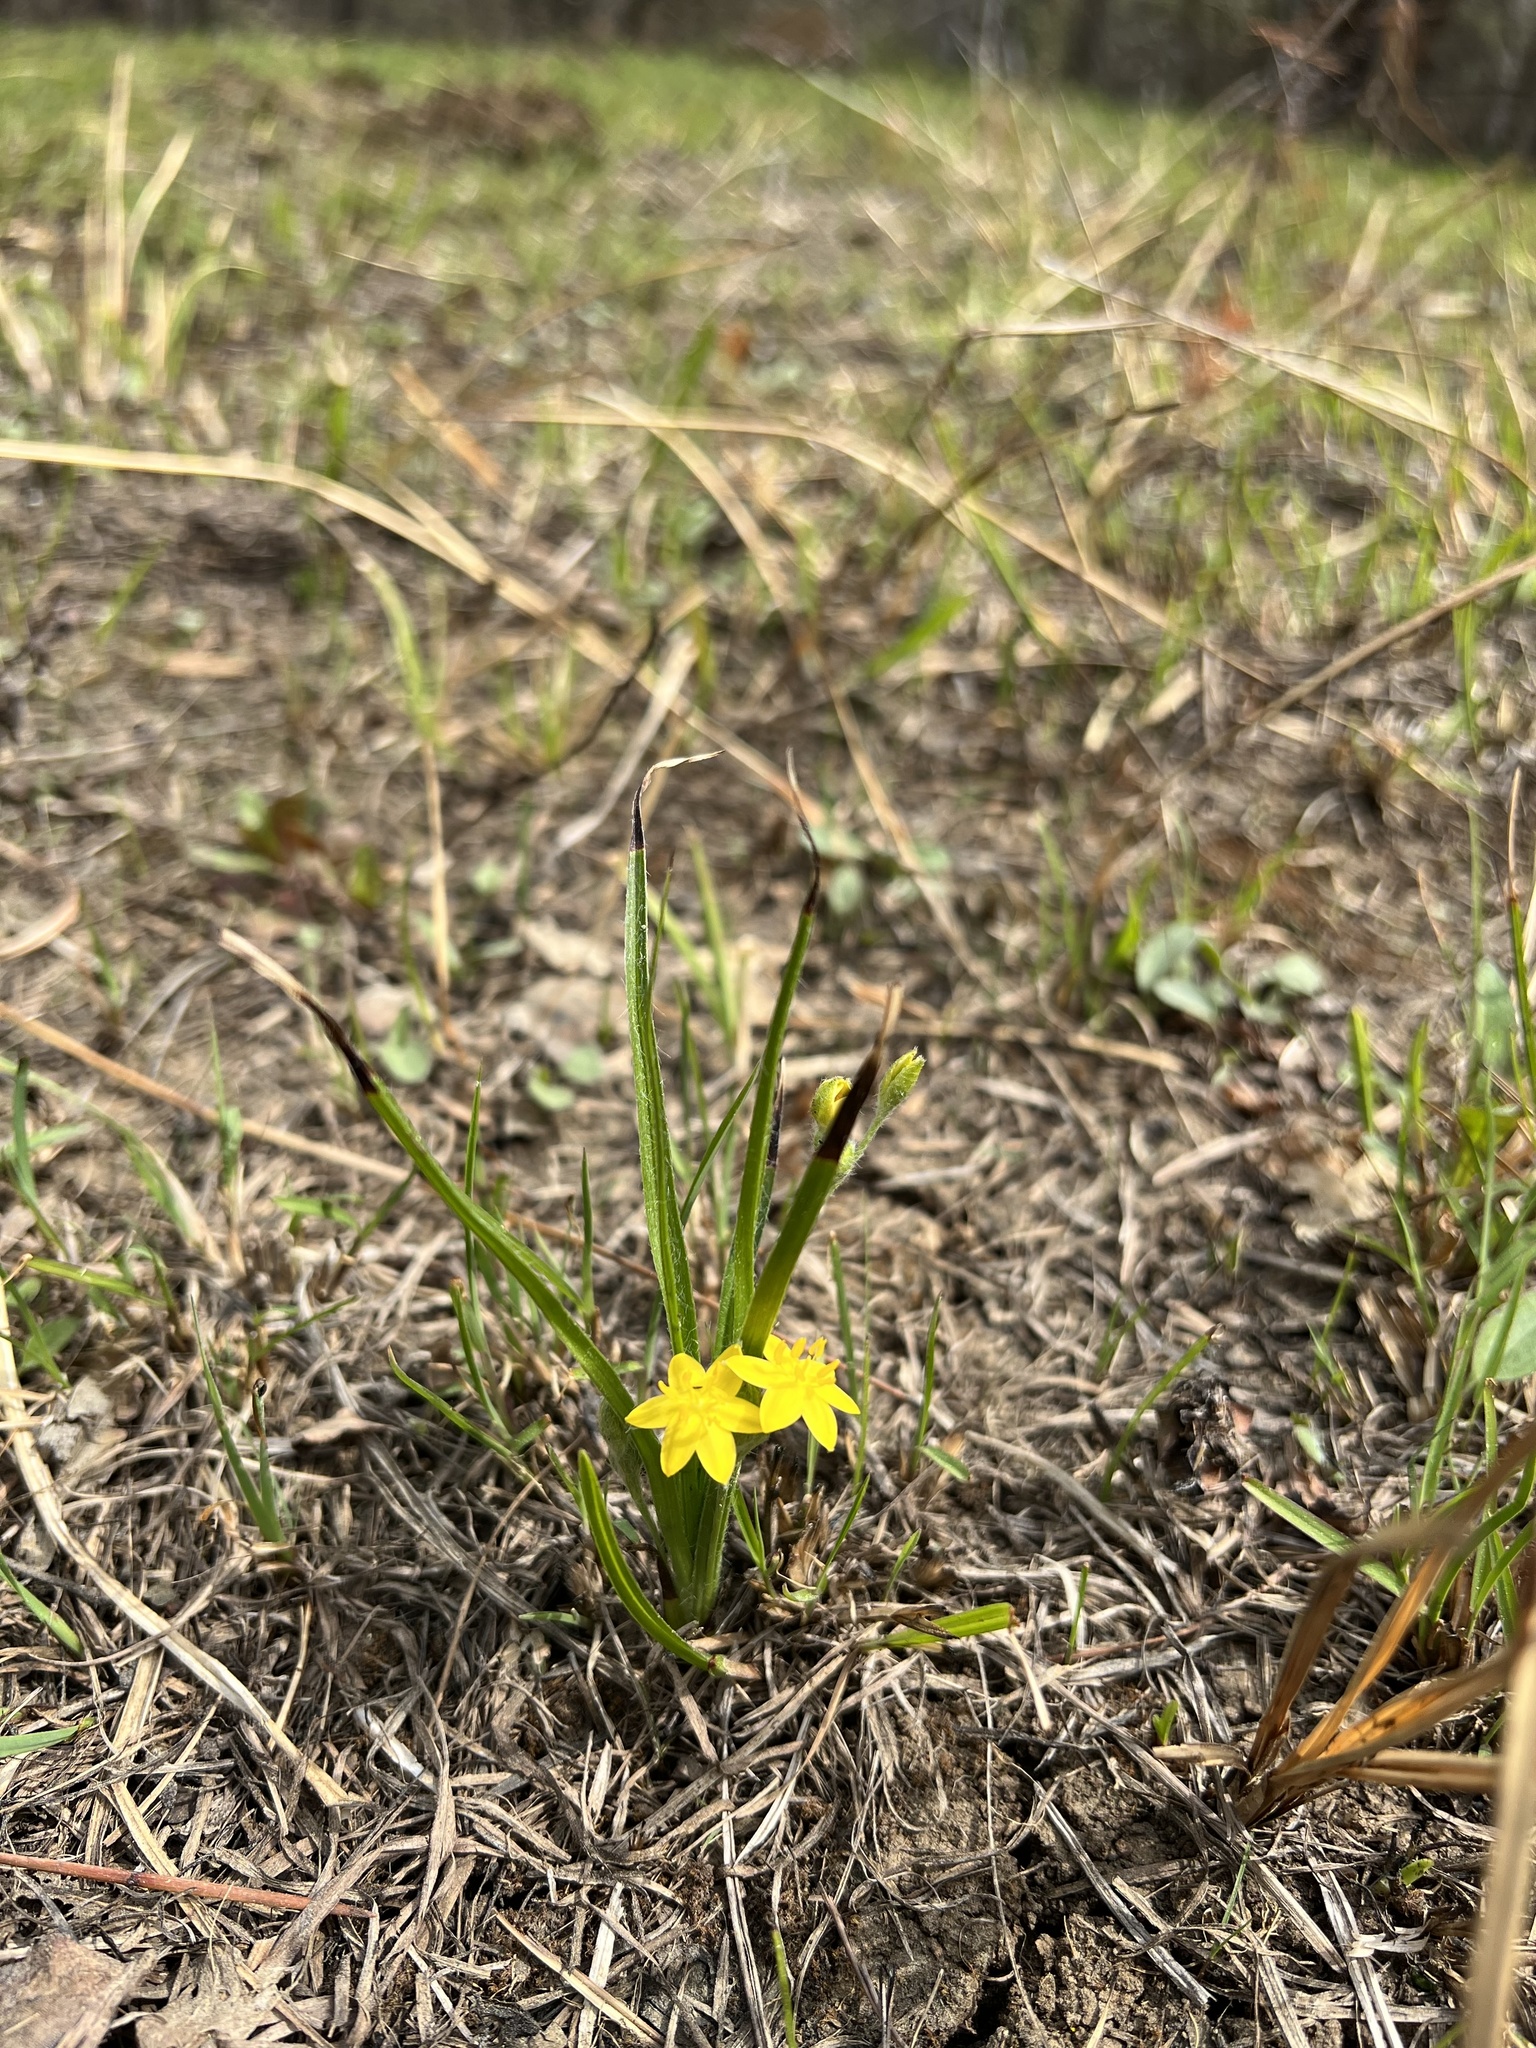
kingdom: Plantae
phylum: Tracheophyta
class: Liliopsida
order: Asparagales
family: Hypoxidaceae
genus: Hypoxis
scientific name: Hypoxis hirsuta
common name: Common goldstar
